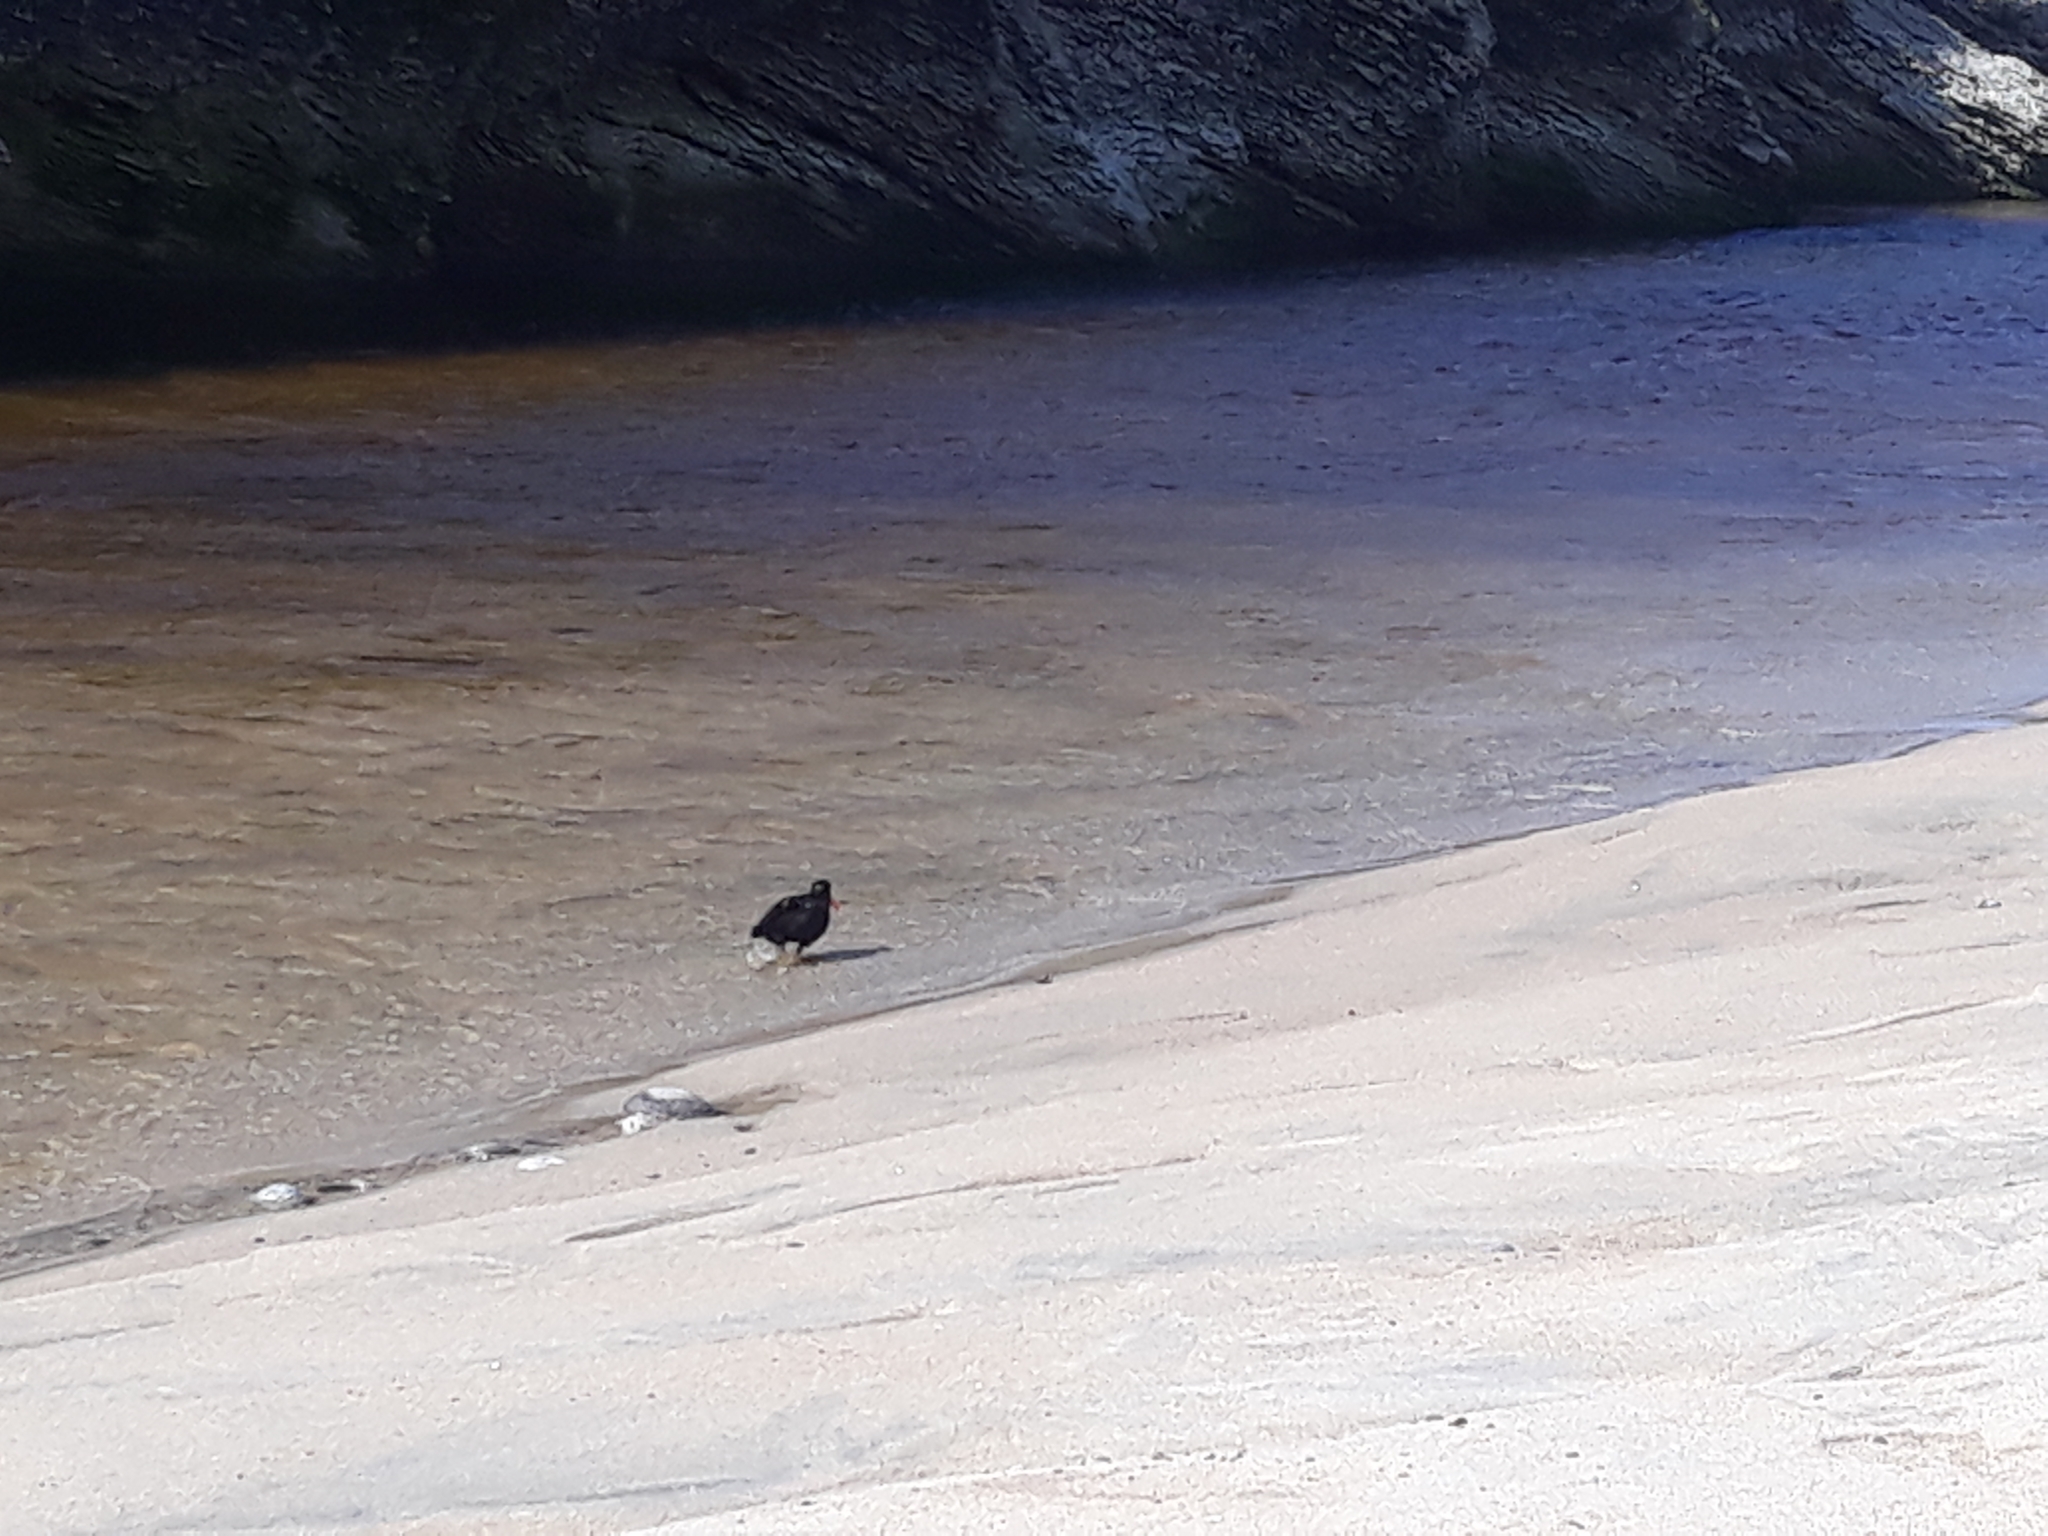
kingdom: Animalia
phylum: Chordata
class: Aves
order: Charadriiformes
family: Haematopodidae
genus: Haematopus
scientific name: Haematopus unicolor
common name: Variable oystercatcher
